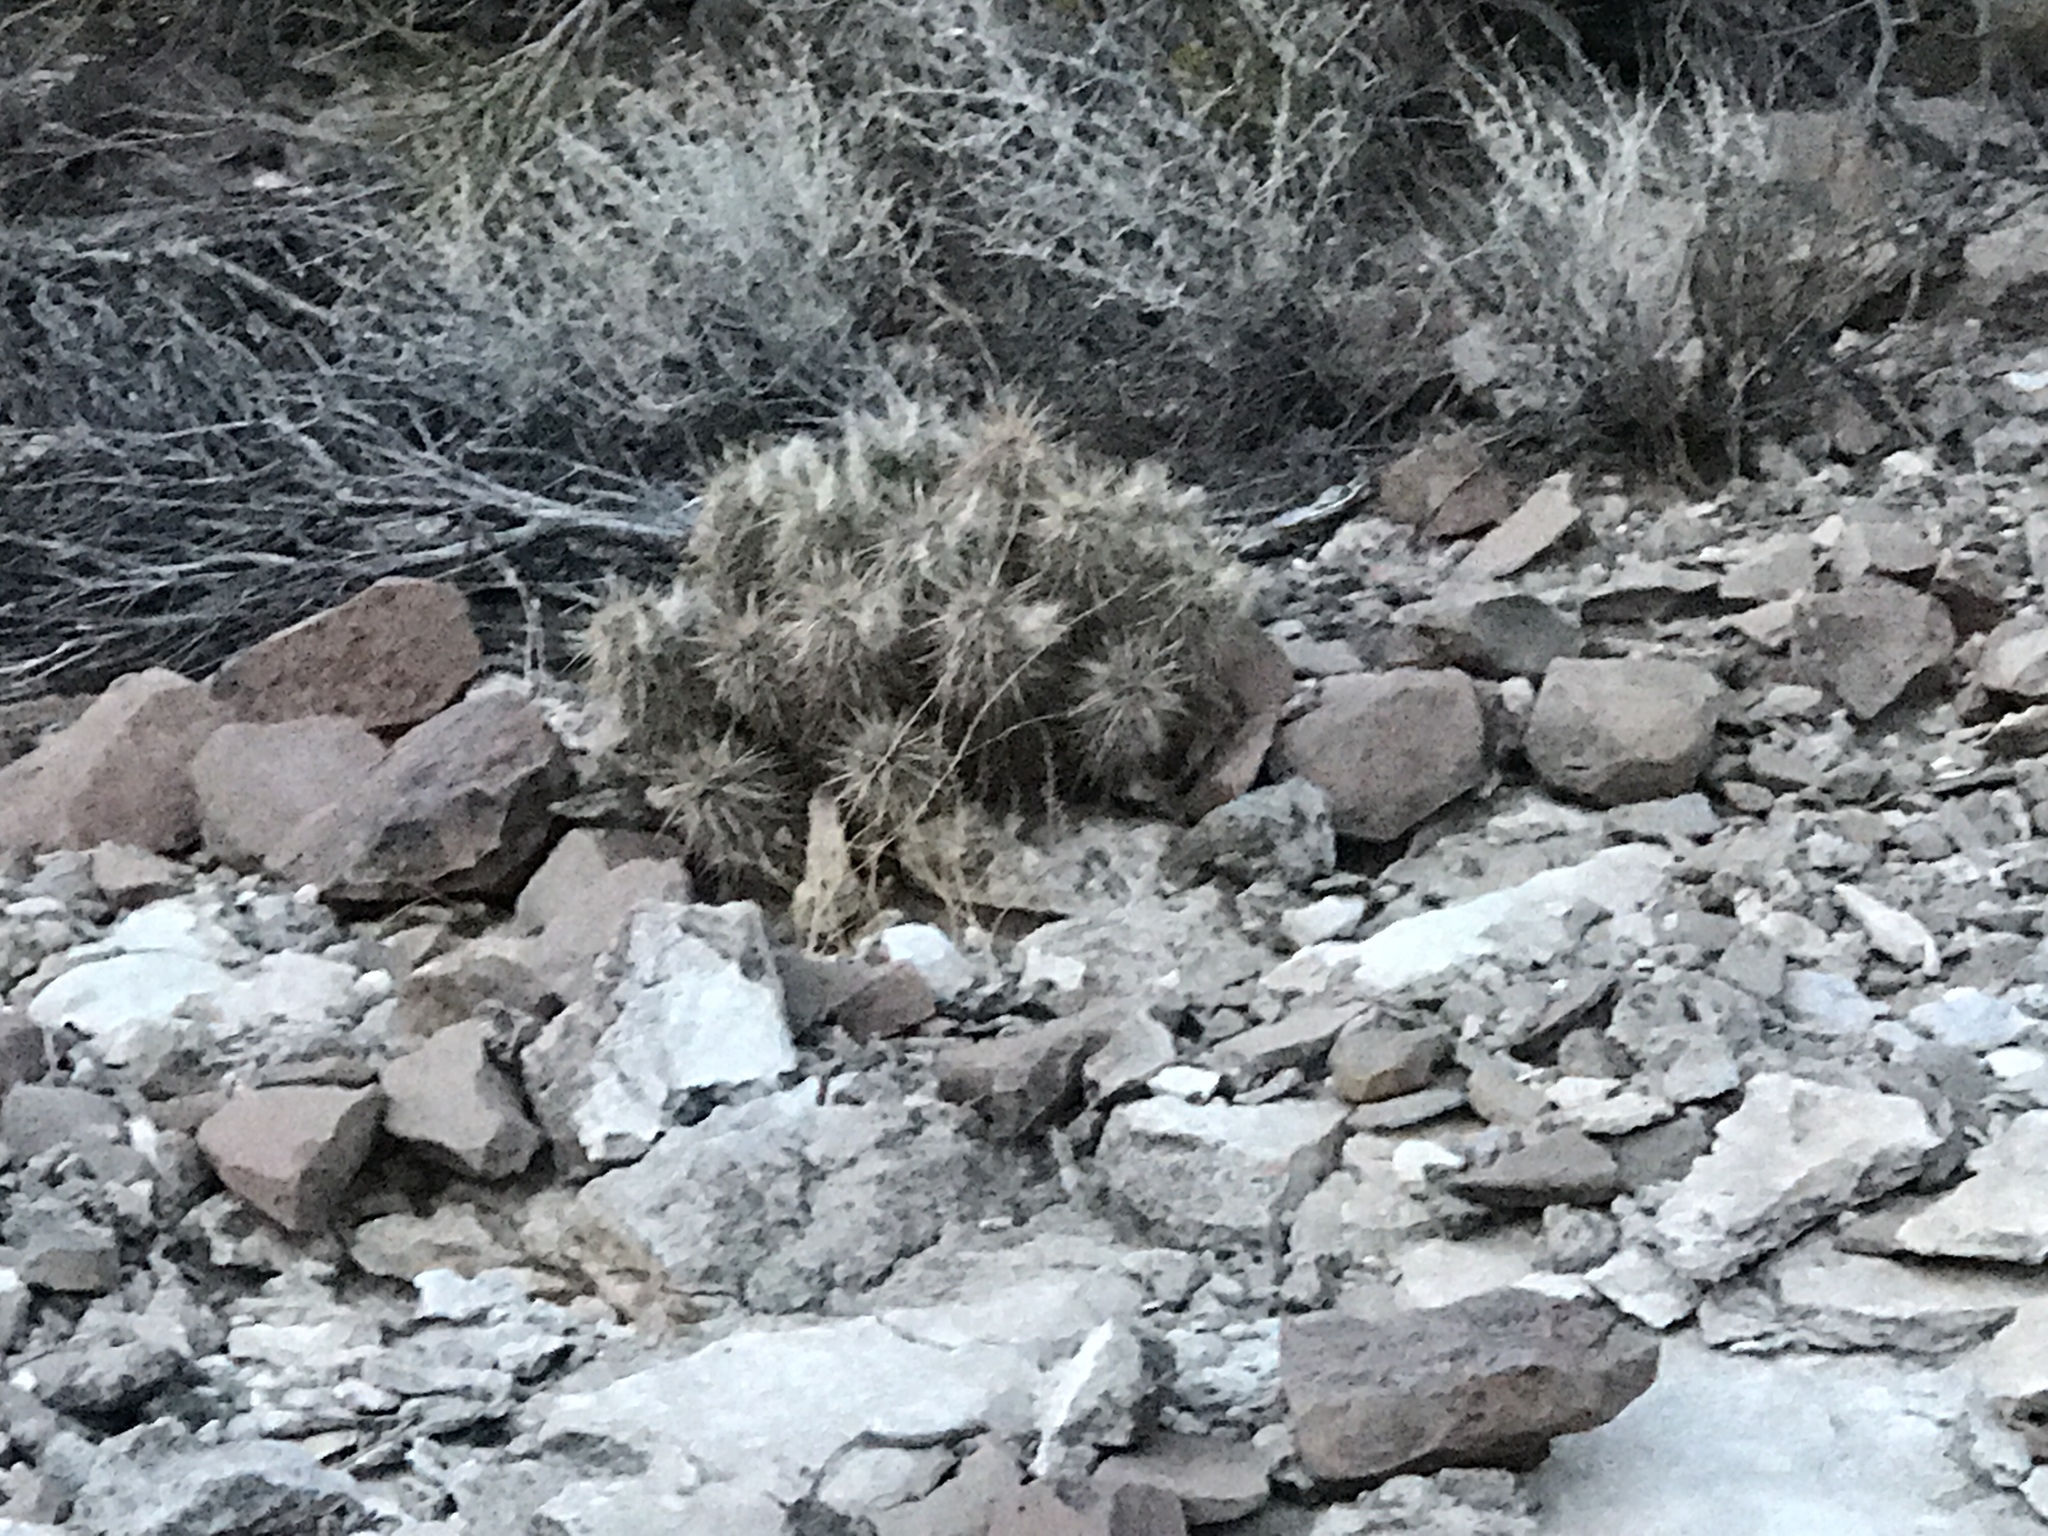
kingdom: Plantae
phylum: Tracheophyta
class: Magnoliopsida
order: Caryophyllales
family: Cactaceae
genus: Echinocereus
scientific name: Echinocereus engelmannii
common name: Engelmann's hedgehog cactus
